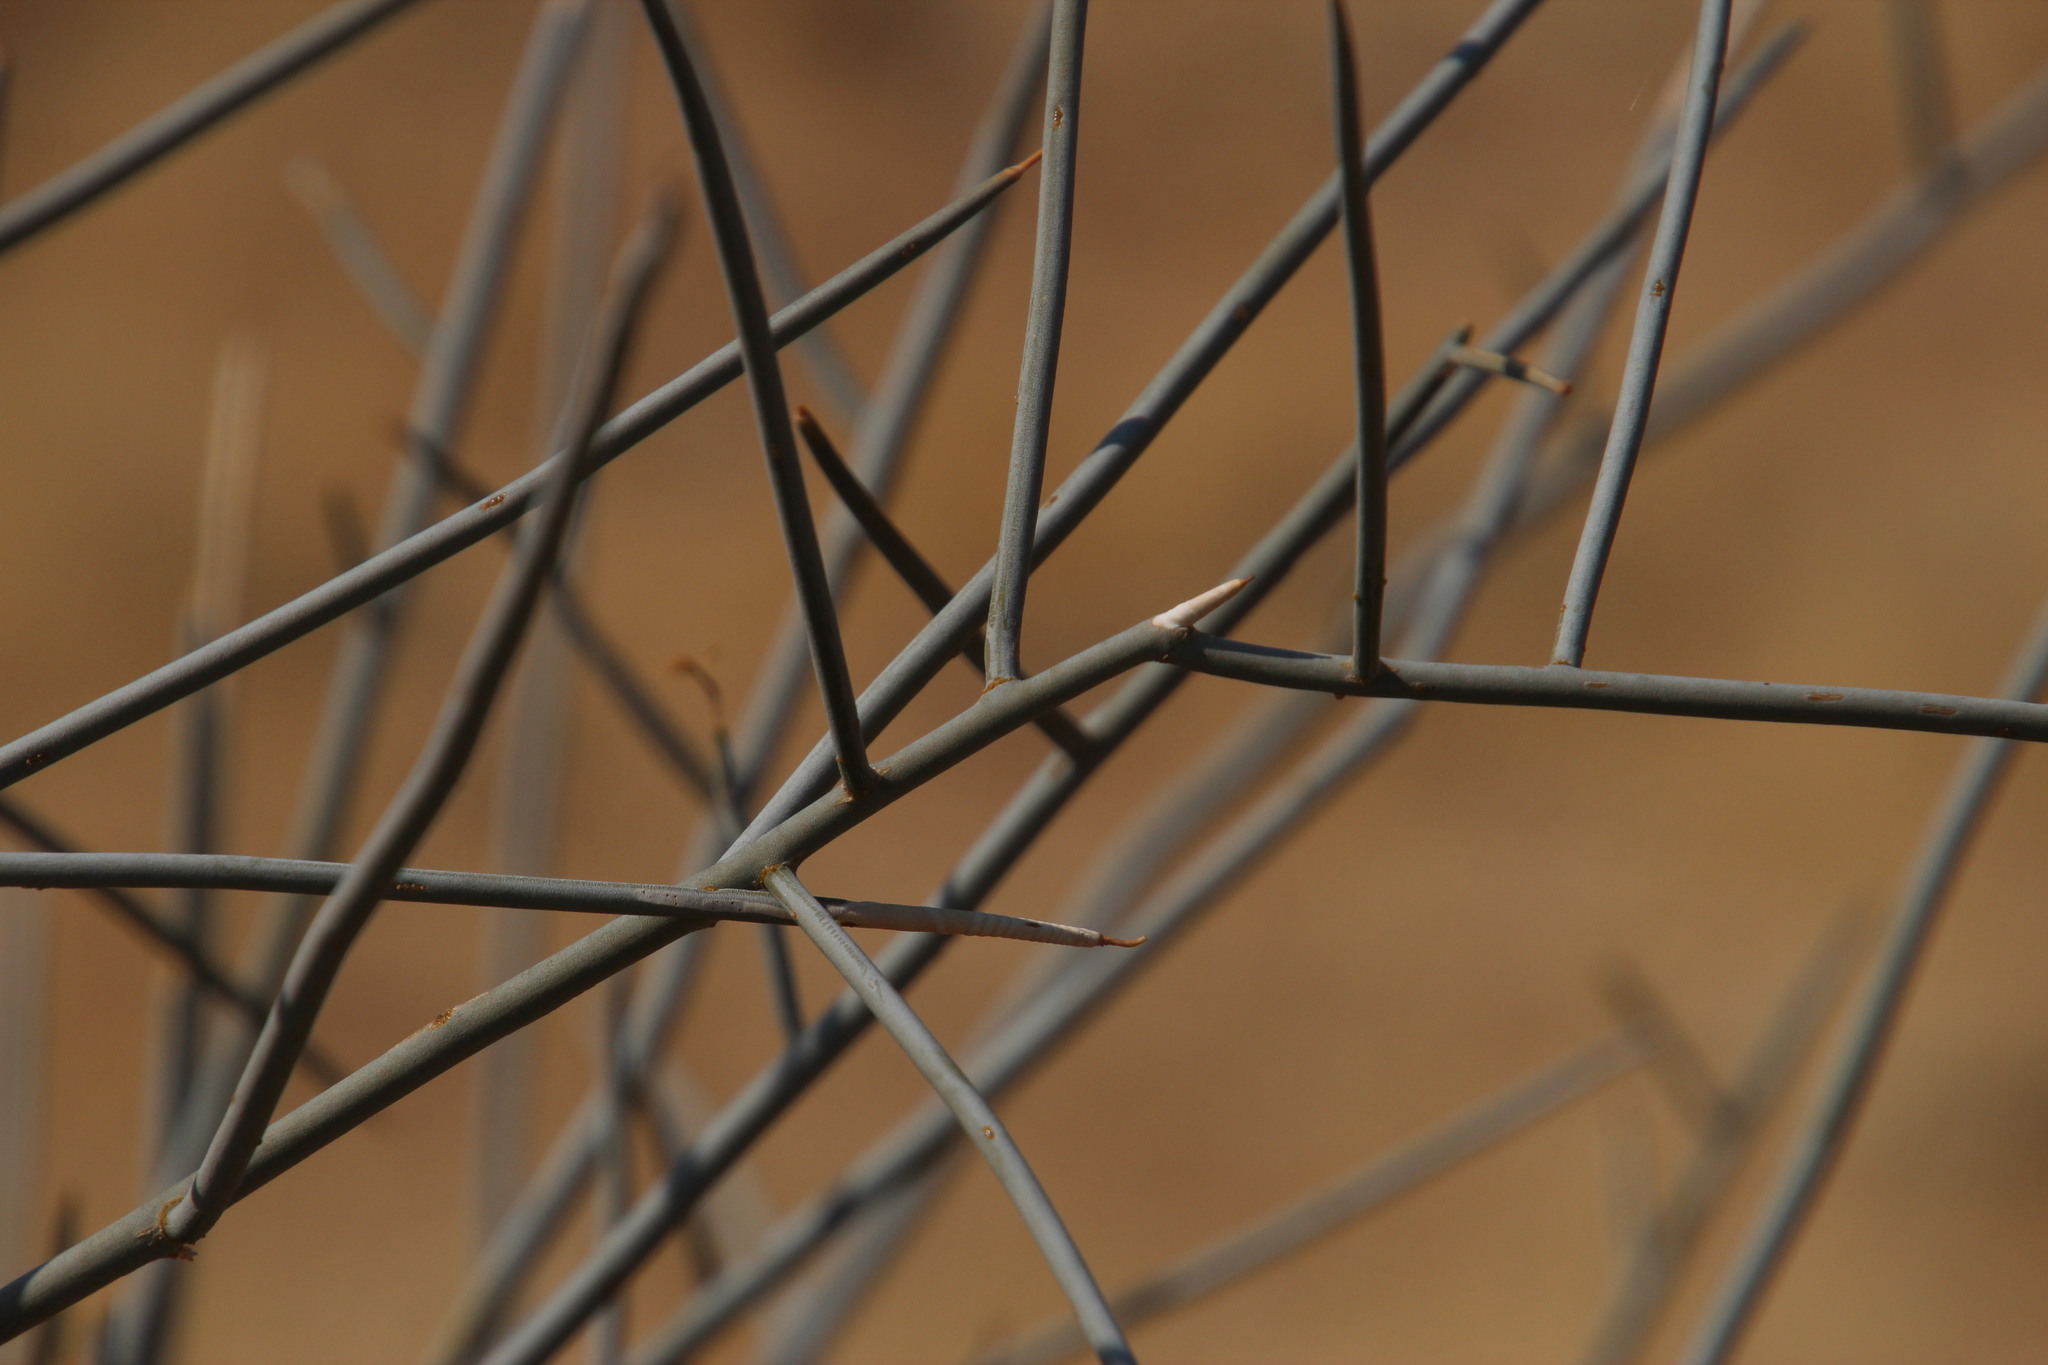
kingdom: Plantae
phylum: Tracheophyta
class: Magnoliopsida
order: Brassicales
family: Capparaceae
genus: Cadaba
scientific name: Cadaba aphylla
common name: Black storm
